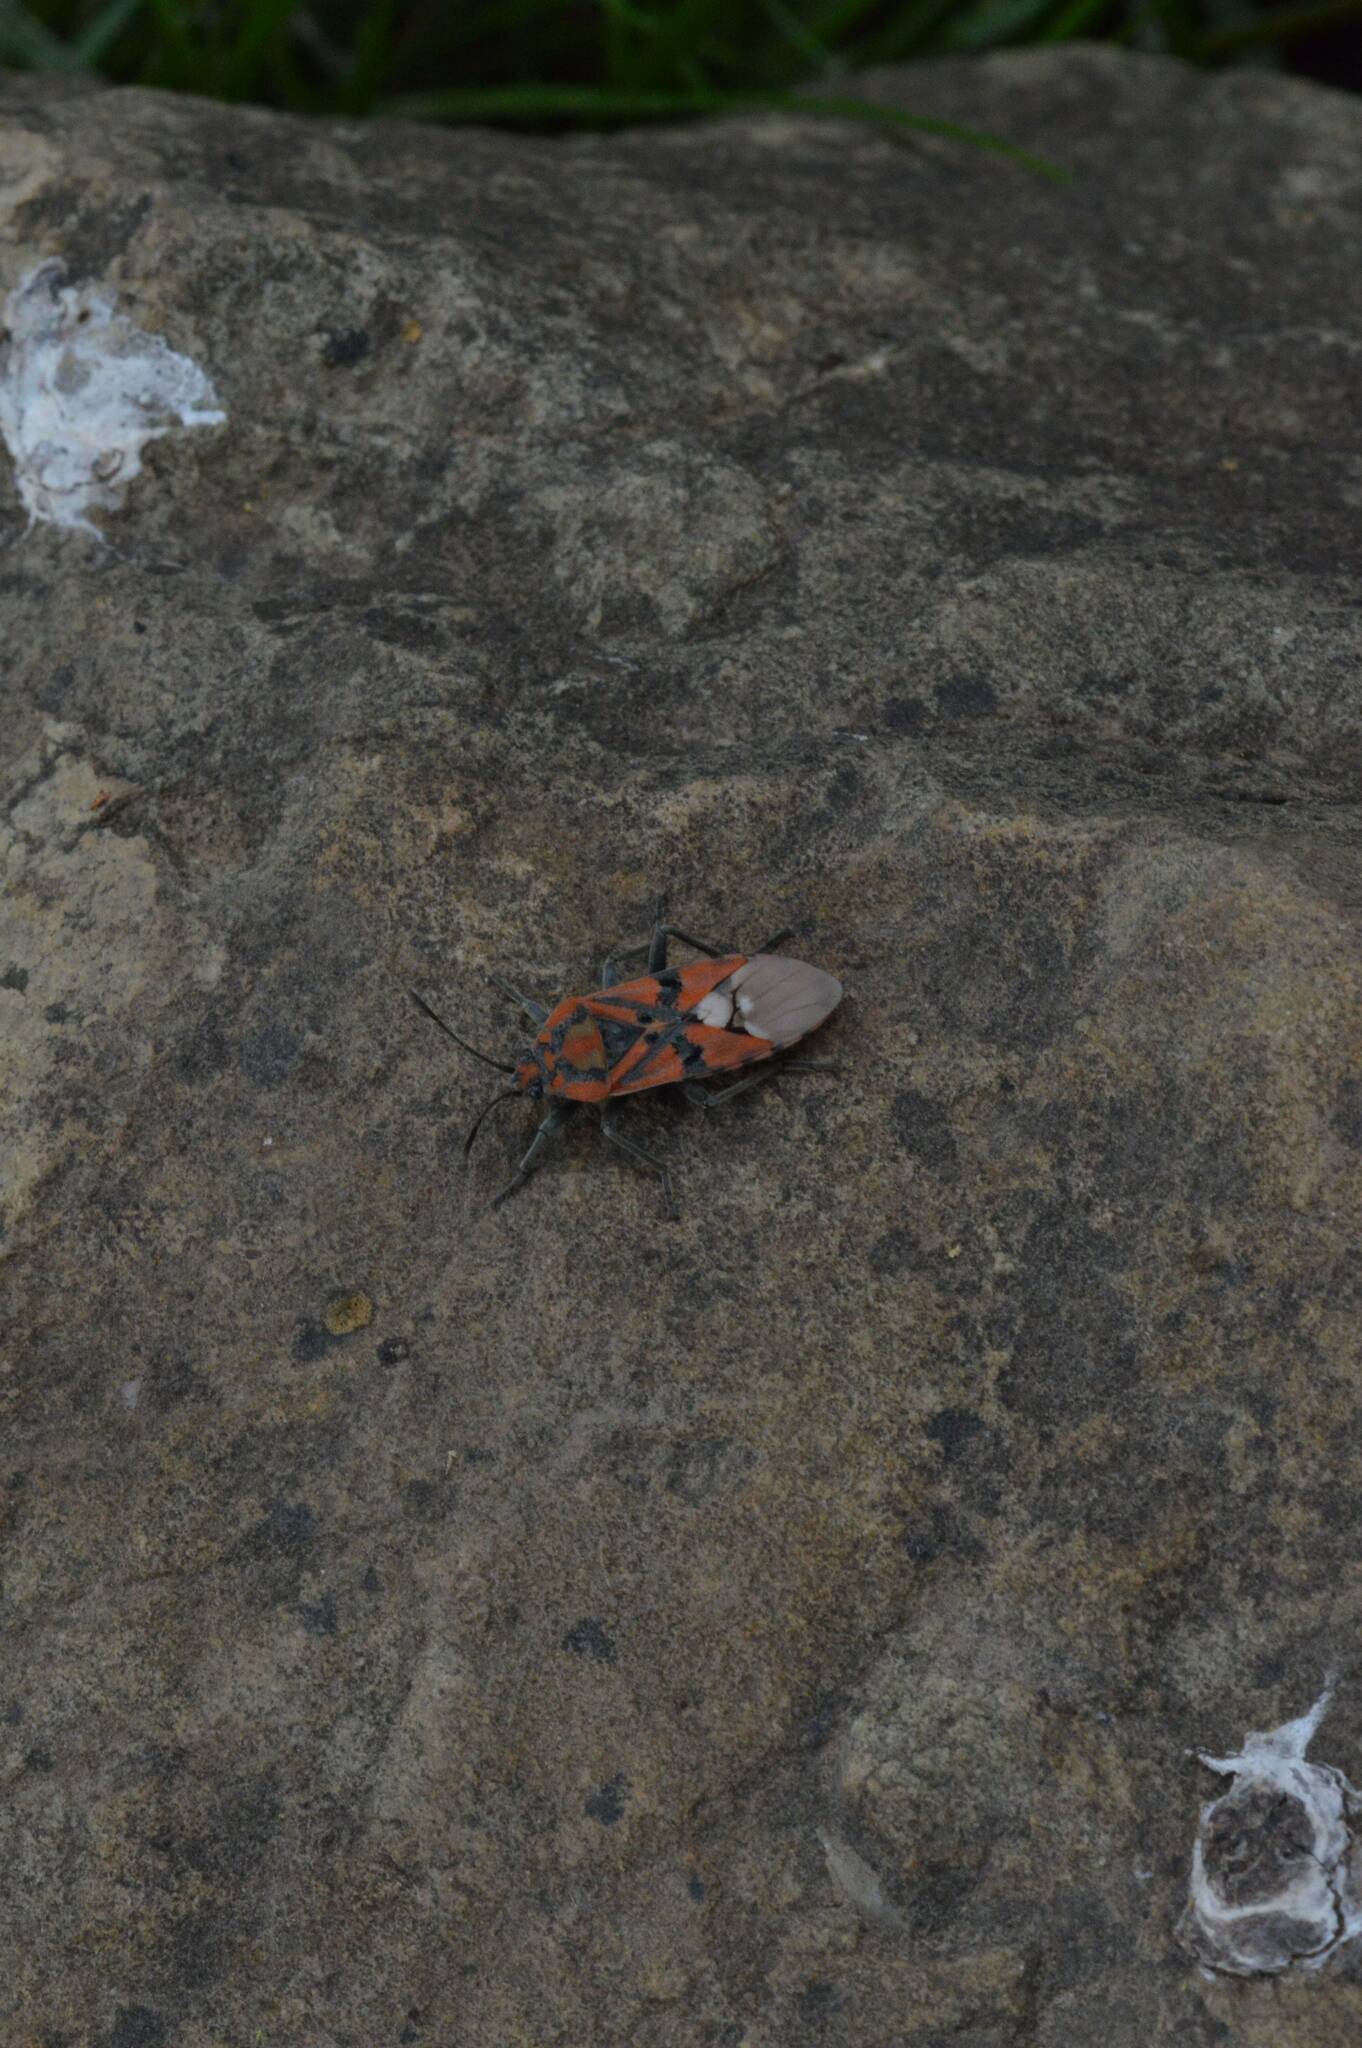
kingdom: Animalia
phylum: Arthropoda
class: Insecta
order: Hemiptera
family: Lygaeidae
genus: Spilostethus
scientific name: Spilostethus pandurus
